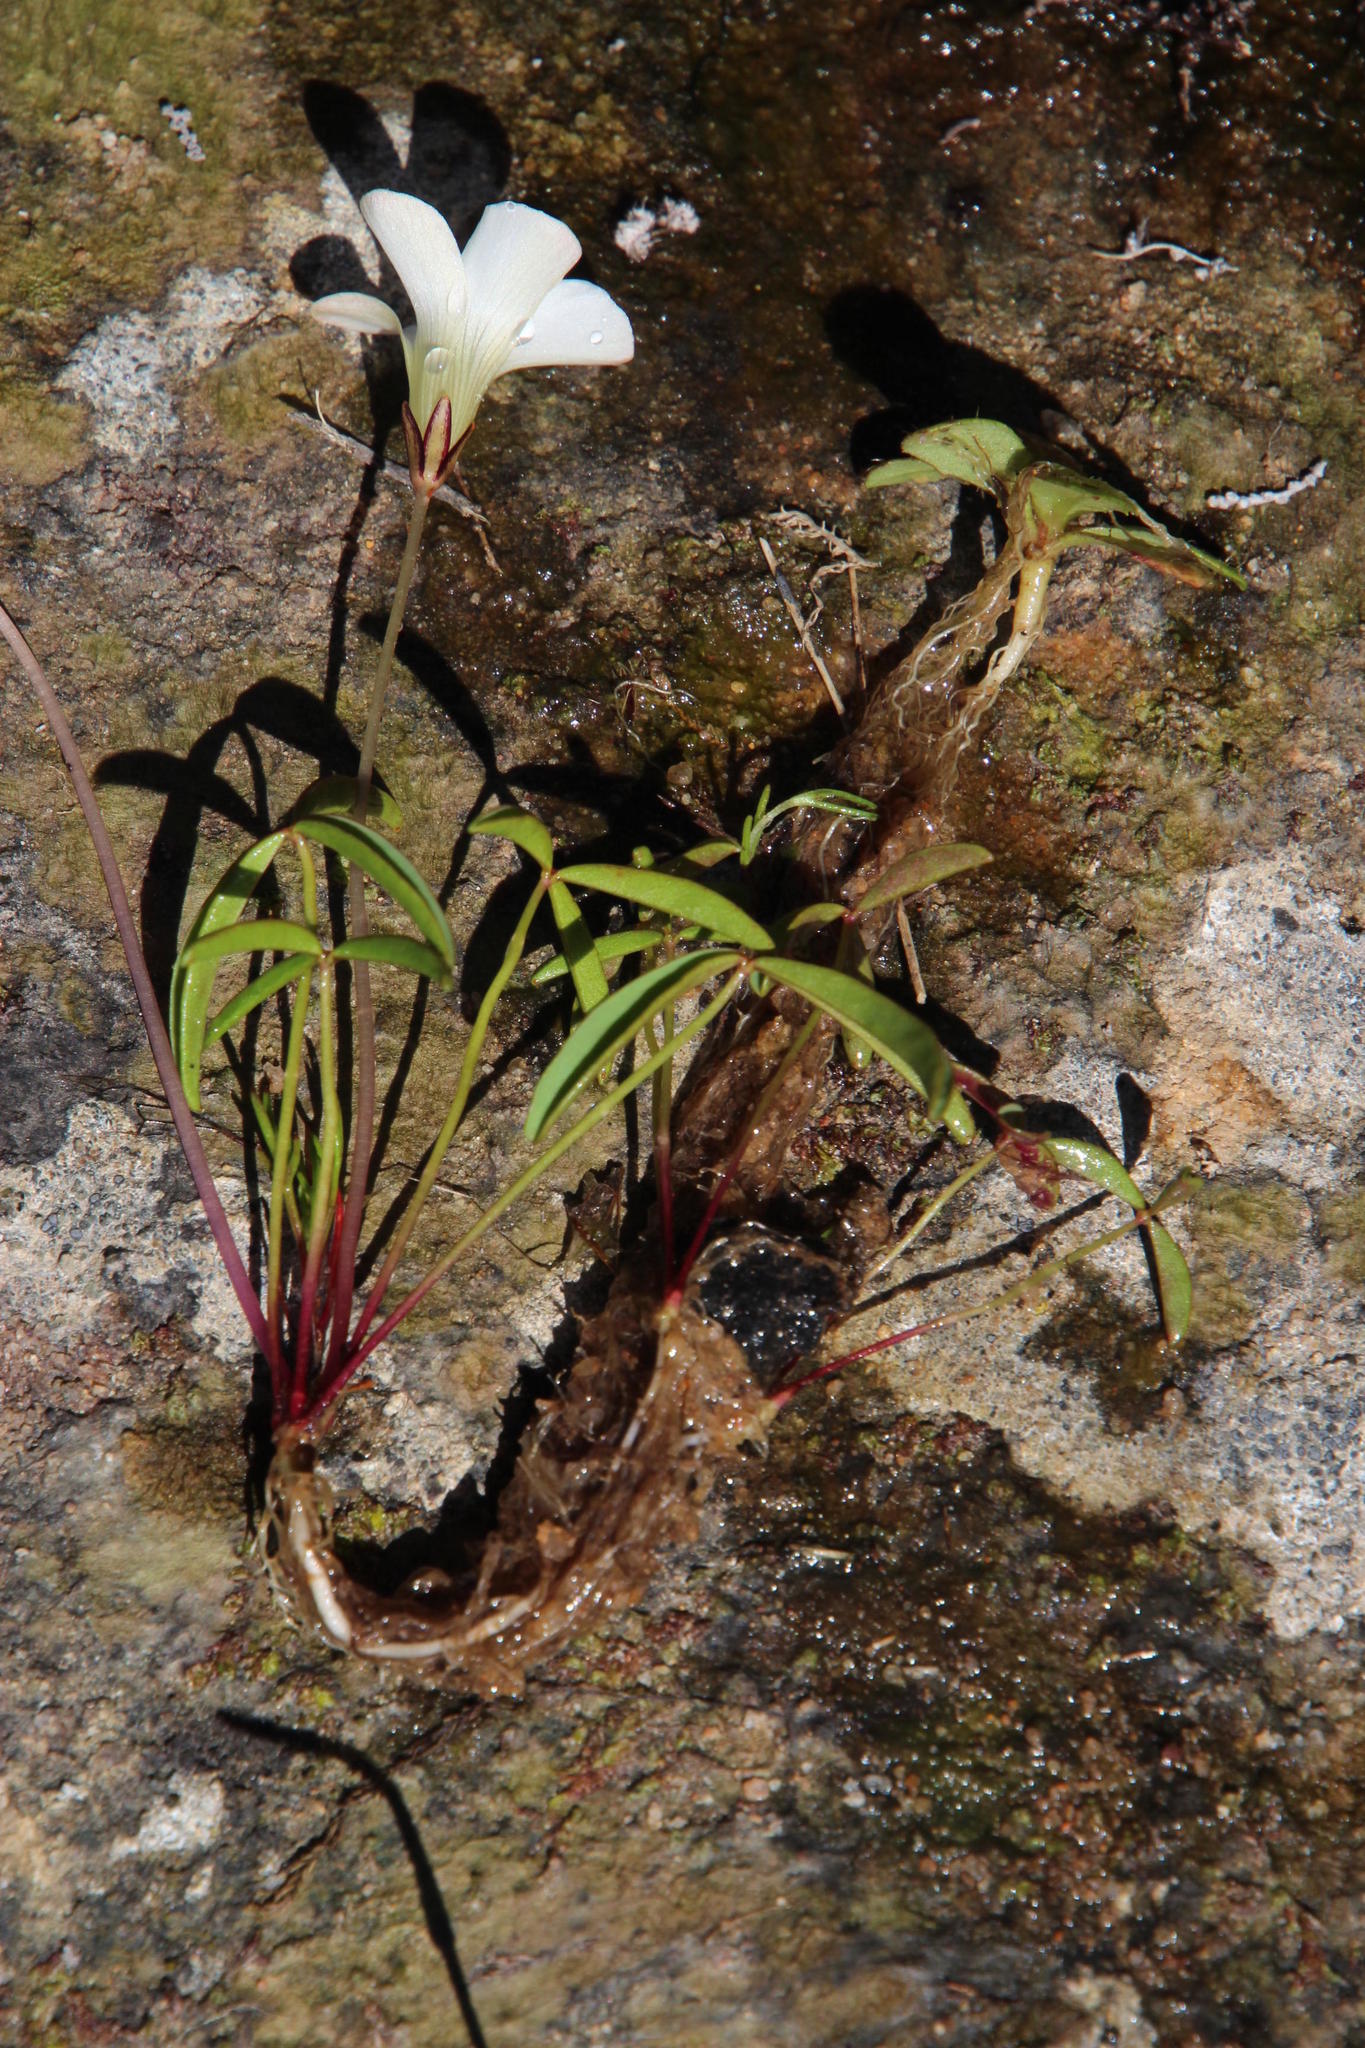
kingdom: Plantae
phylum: Tracheophyta
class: Magnoliopsida
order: Oxalidales
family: Oxalidaceae
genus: Oxalis
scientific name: Oxalis oligophylla
